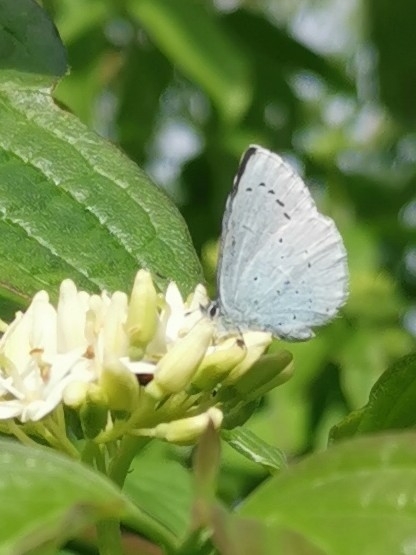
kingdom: Animalia
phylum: Arthropoda
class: Insecta
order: Lepidoptera
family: Lycaenidae
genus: Celastrina
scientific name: Celastrina argiolus
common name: Holly blue
